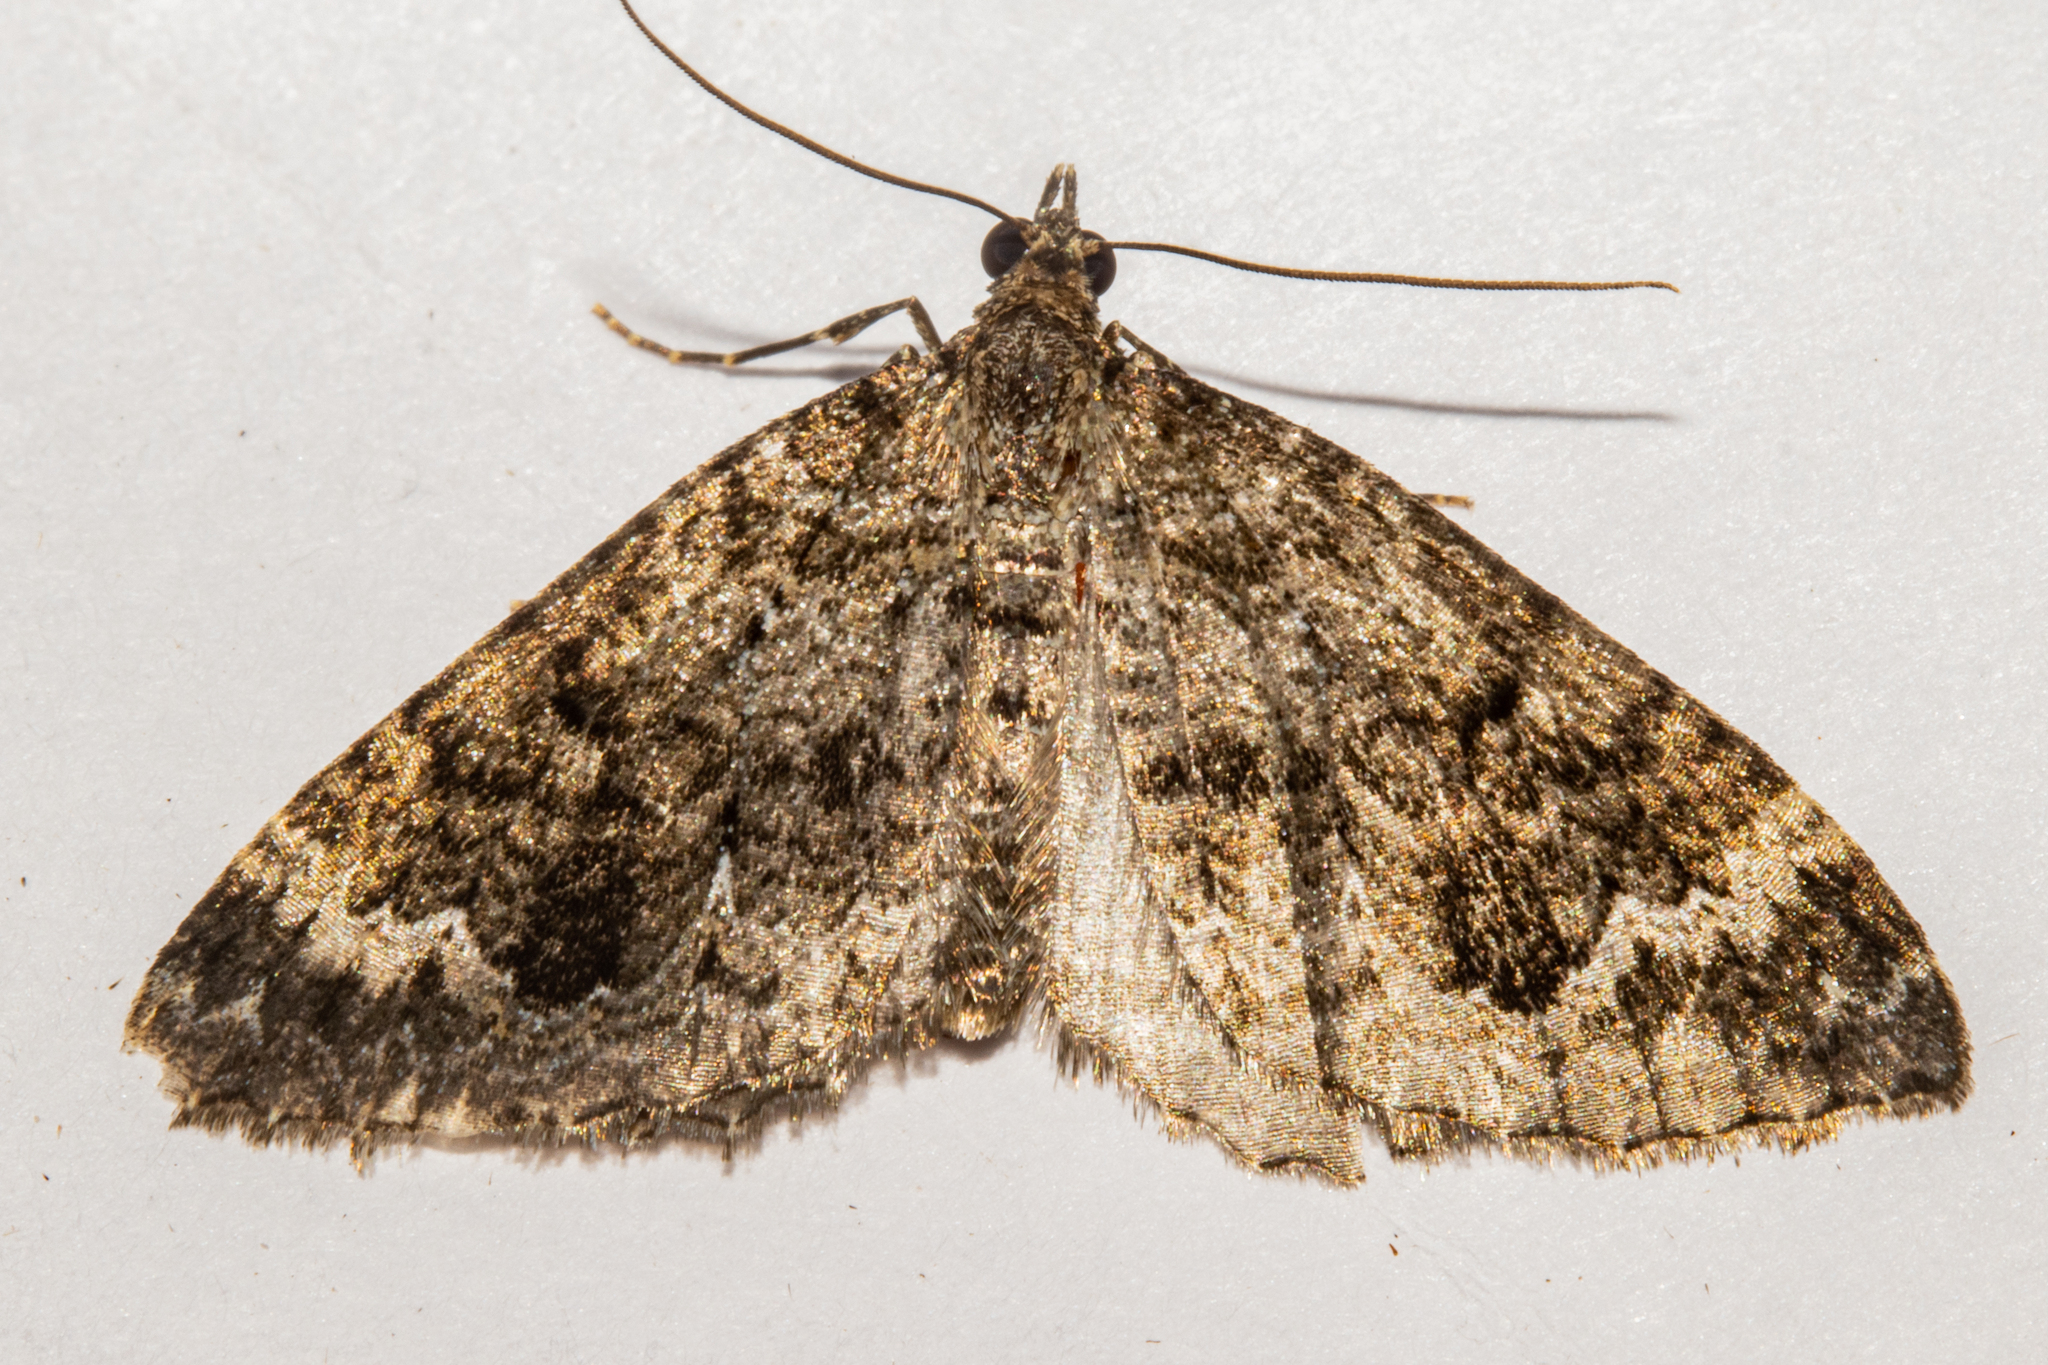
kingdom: Animalia
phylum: Arthropoda
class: Insecta
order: Lepidoptera
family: Geometridae
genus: Hydriomena
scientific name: Hydriomena hemizona
